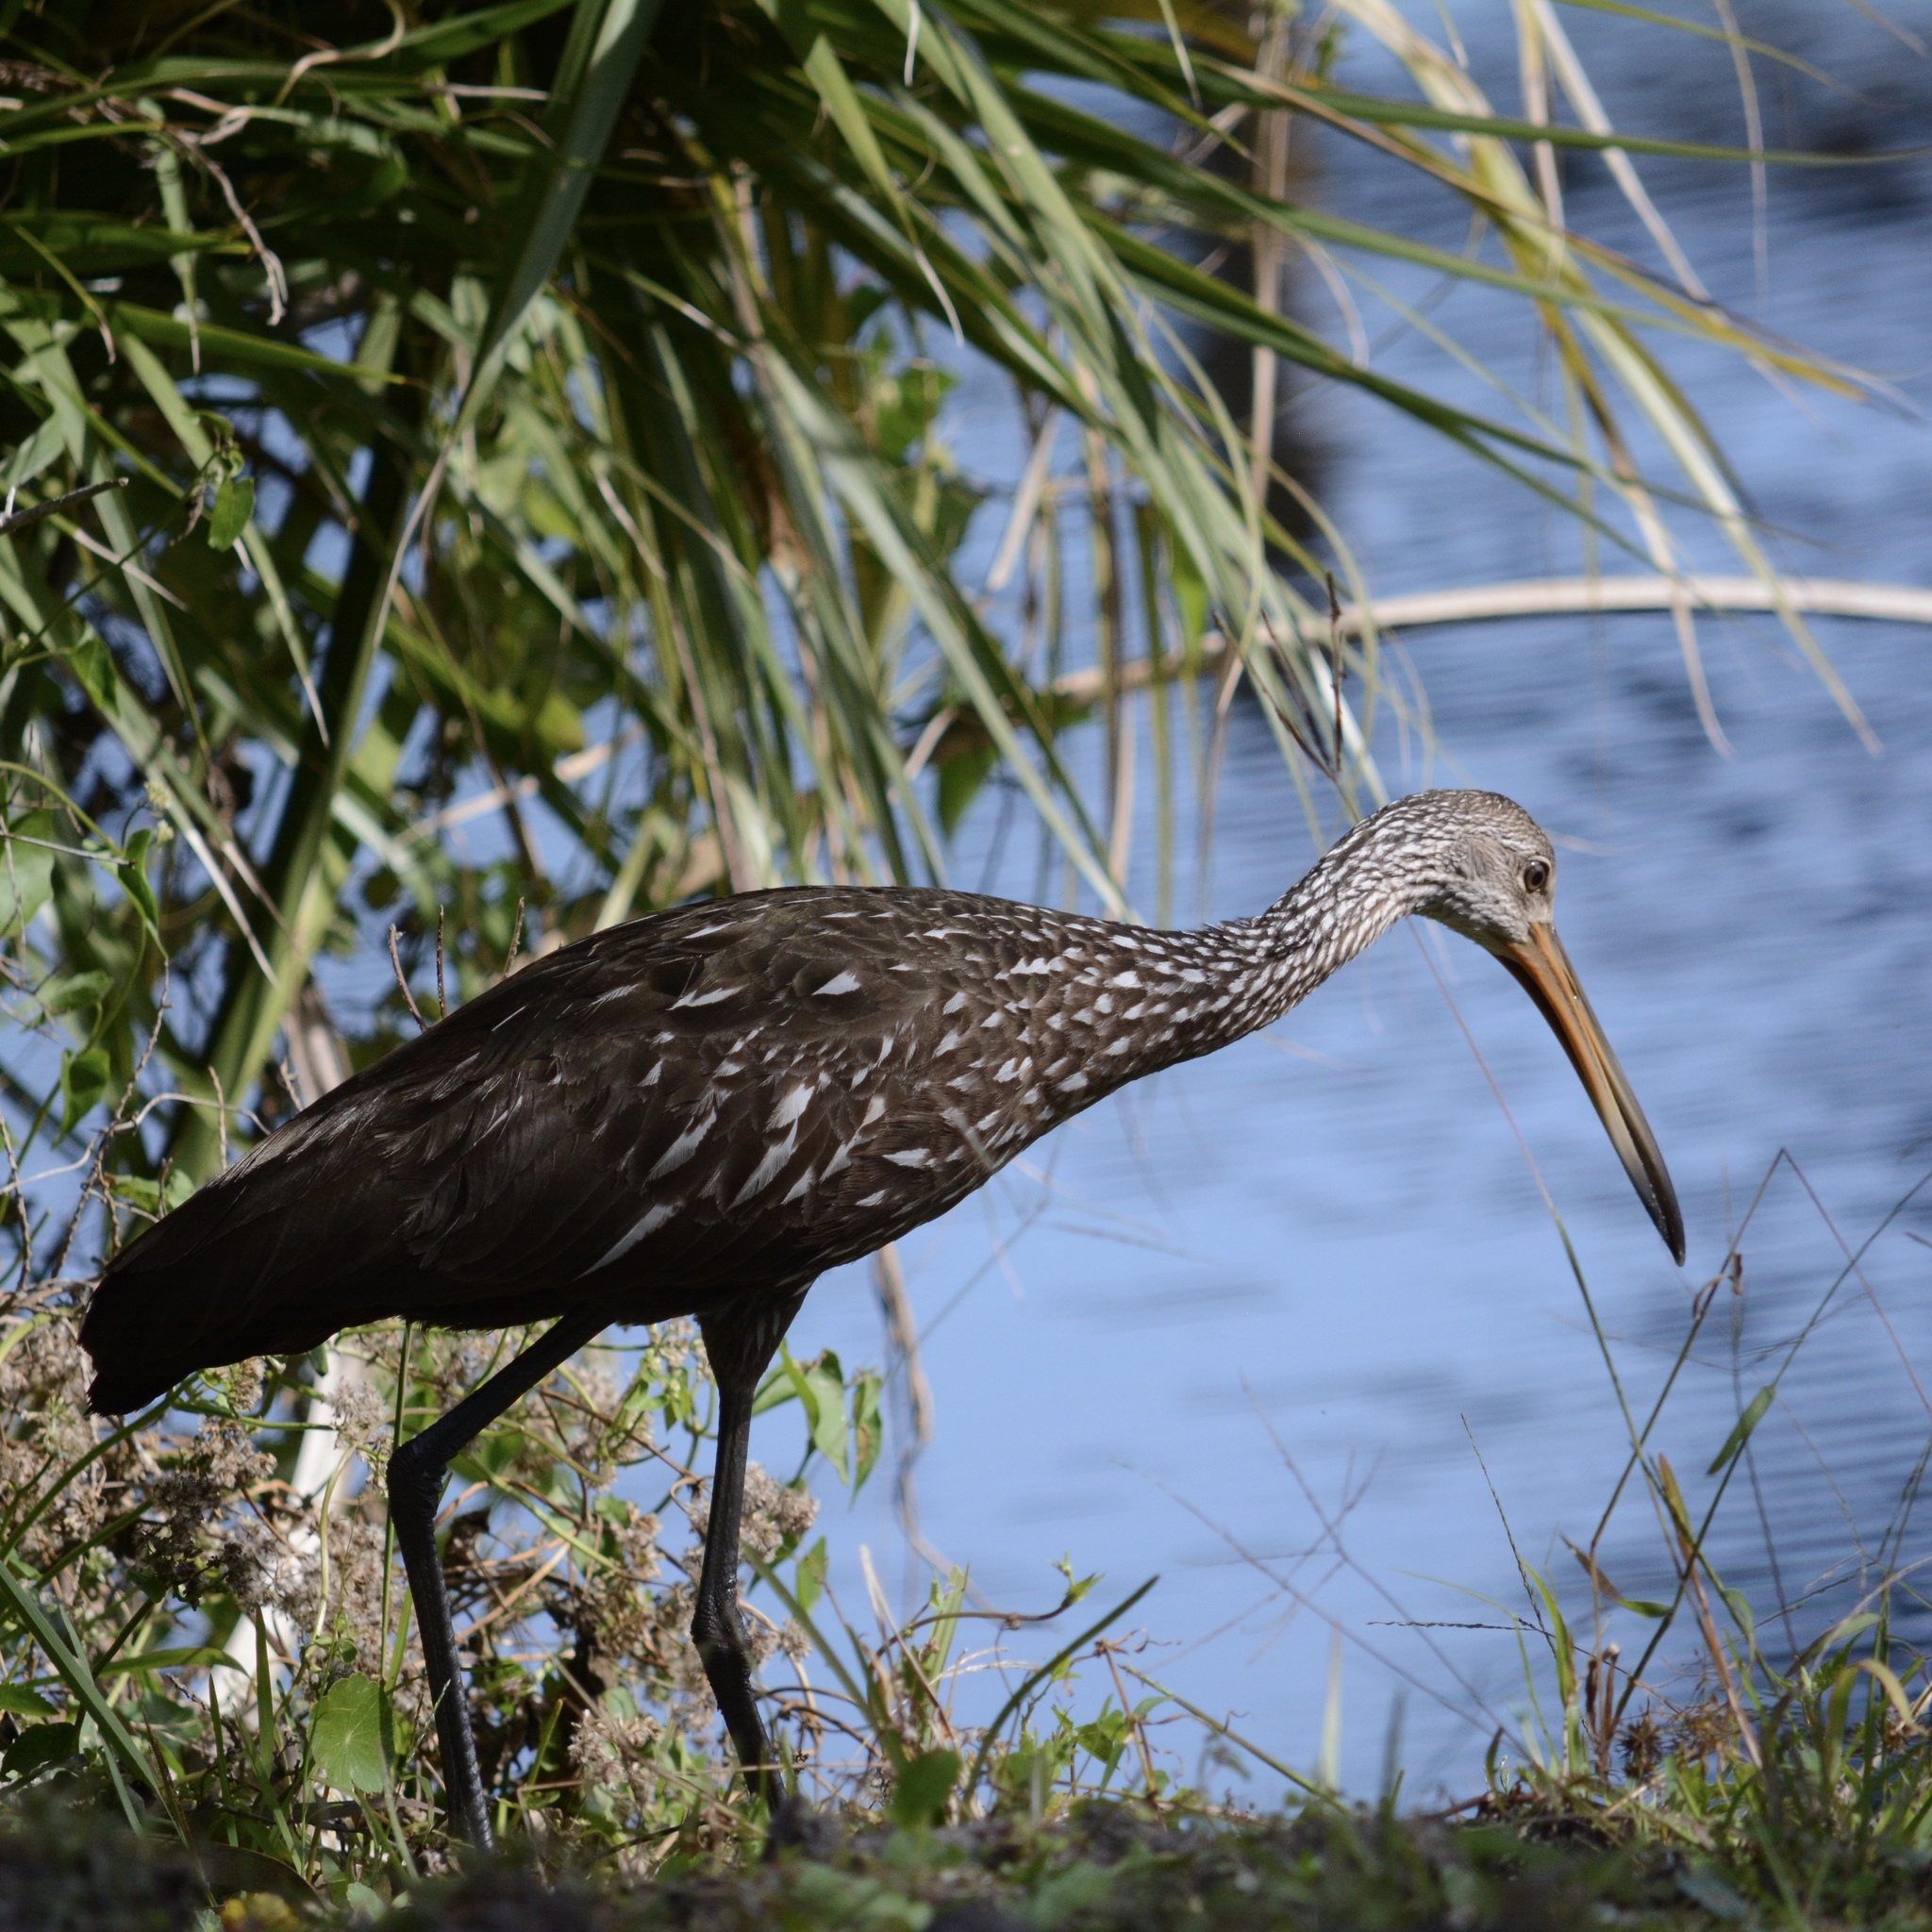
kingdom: Animalia
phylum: Chordata
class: Aves
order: Gruiformes
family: Aramidae
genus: Aramus
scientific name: Aramus guarauna
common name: Limpkin
